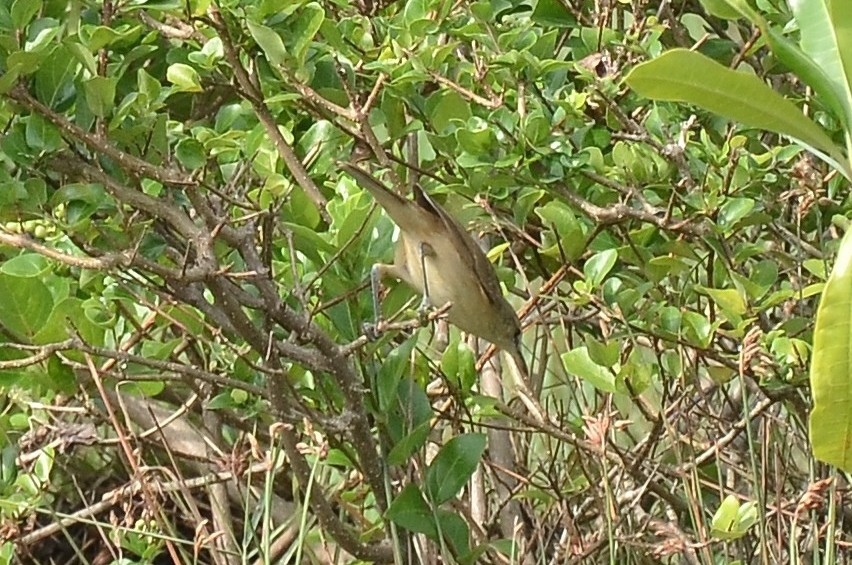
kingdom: Animalia
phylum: Chordata
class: Aves
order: Passeriformes
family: Acrocephalidae
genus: Acrocephalus
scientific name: Acrocephalus stentoreus
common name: Clamorous reed warbler
